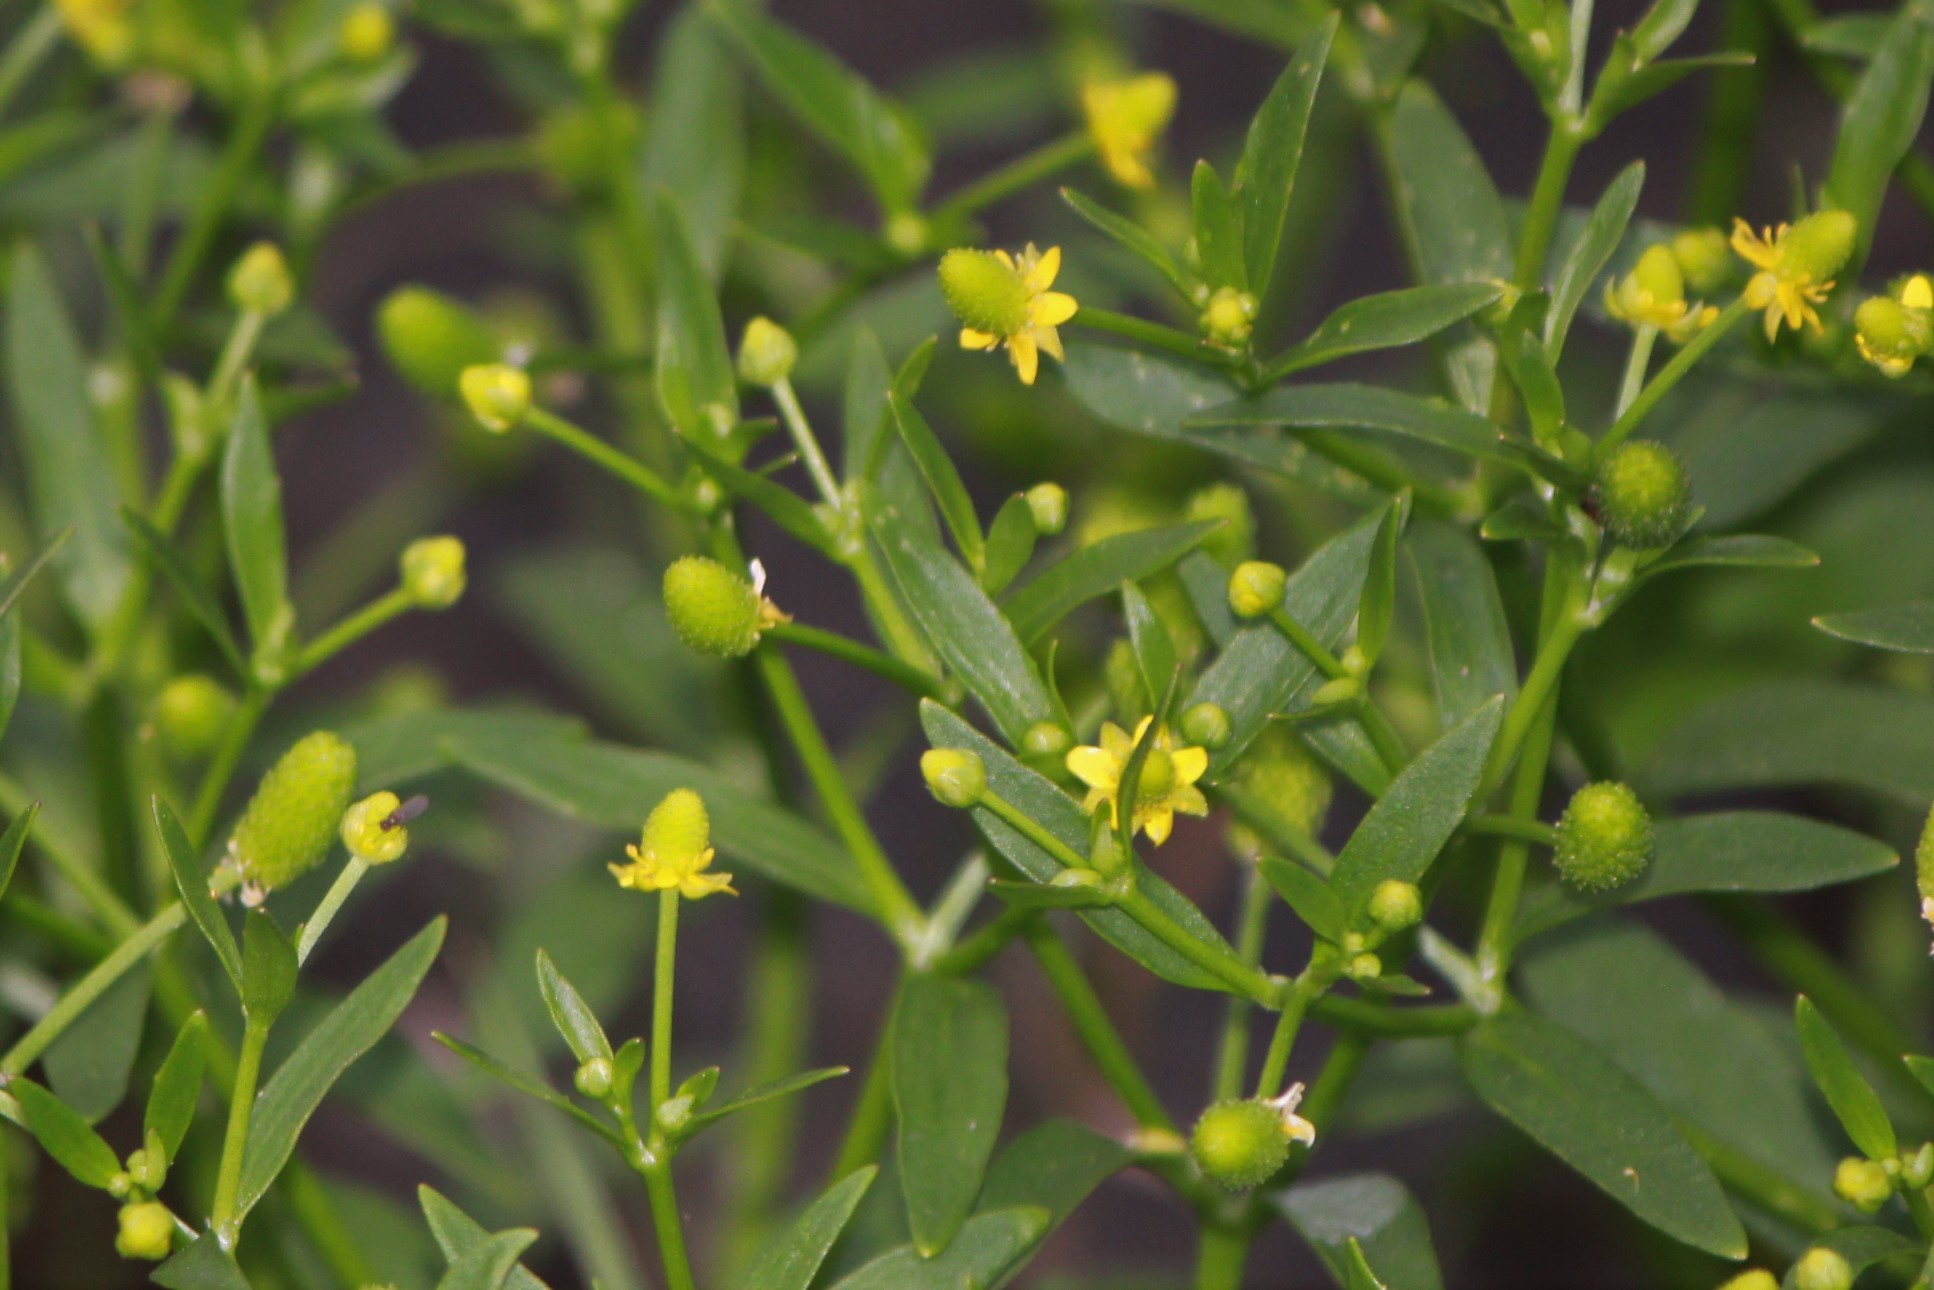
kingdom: Plantae
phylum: Tracheophyta
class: Magnoliopsida
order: Ranunculales
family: Ranunculaceae
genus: Ranunculus
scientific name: Ranunculus sceleratus
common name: Celery-leaved buttercup
